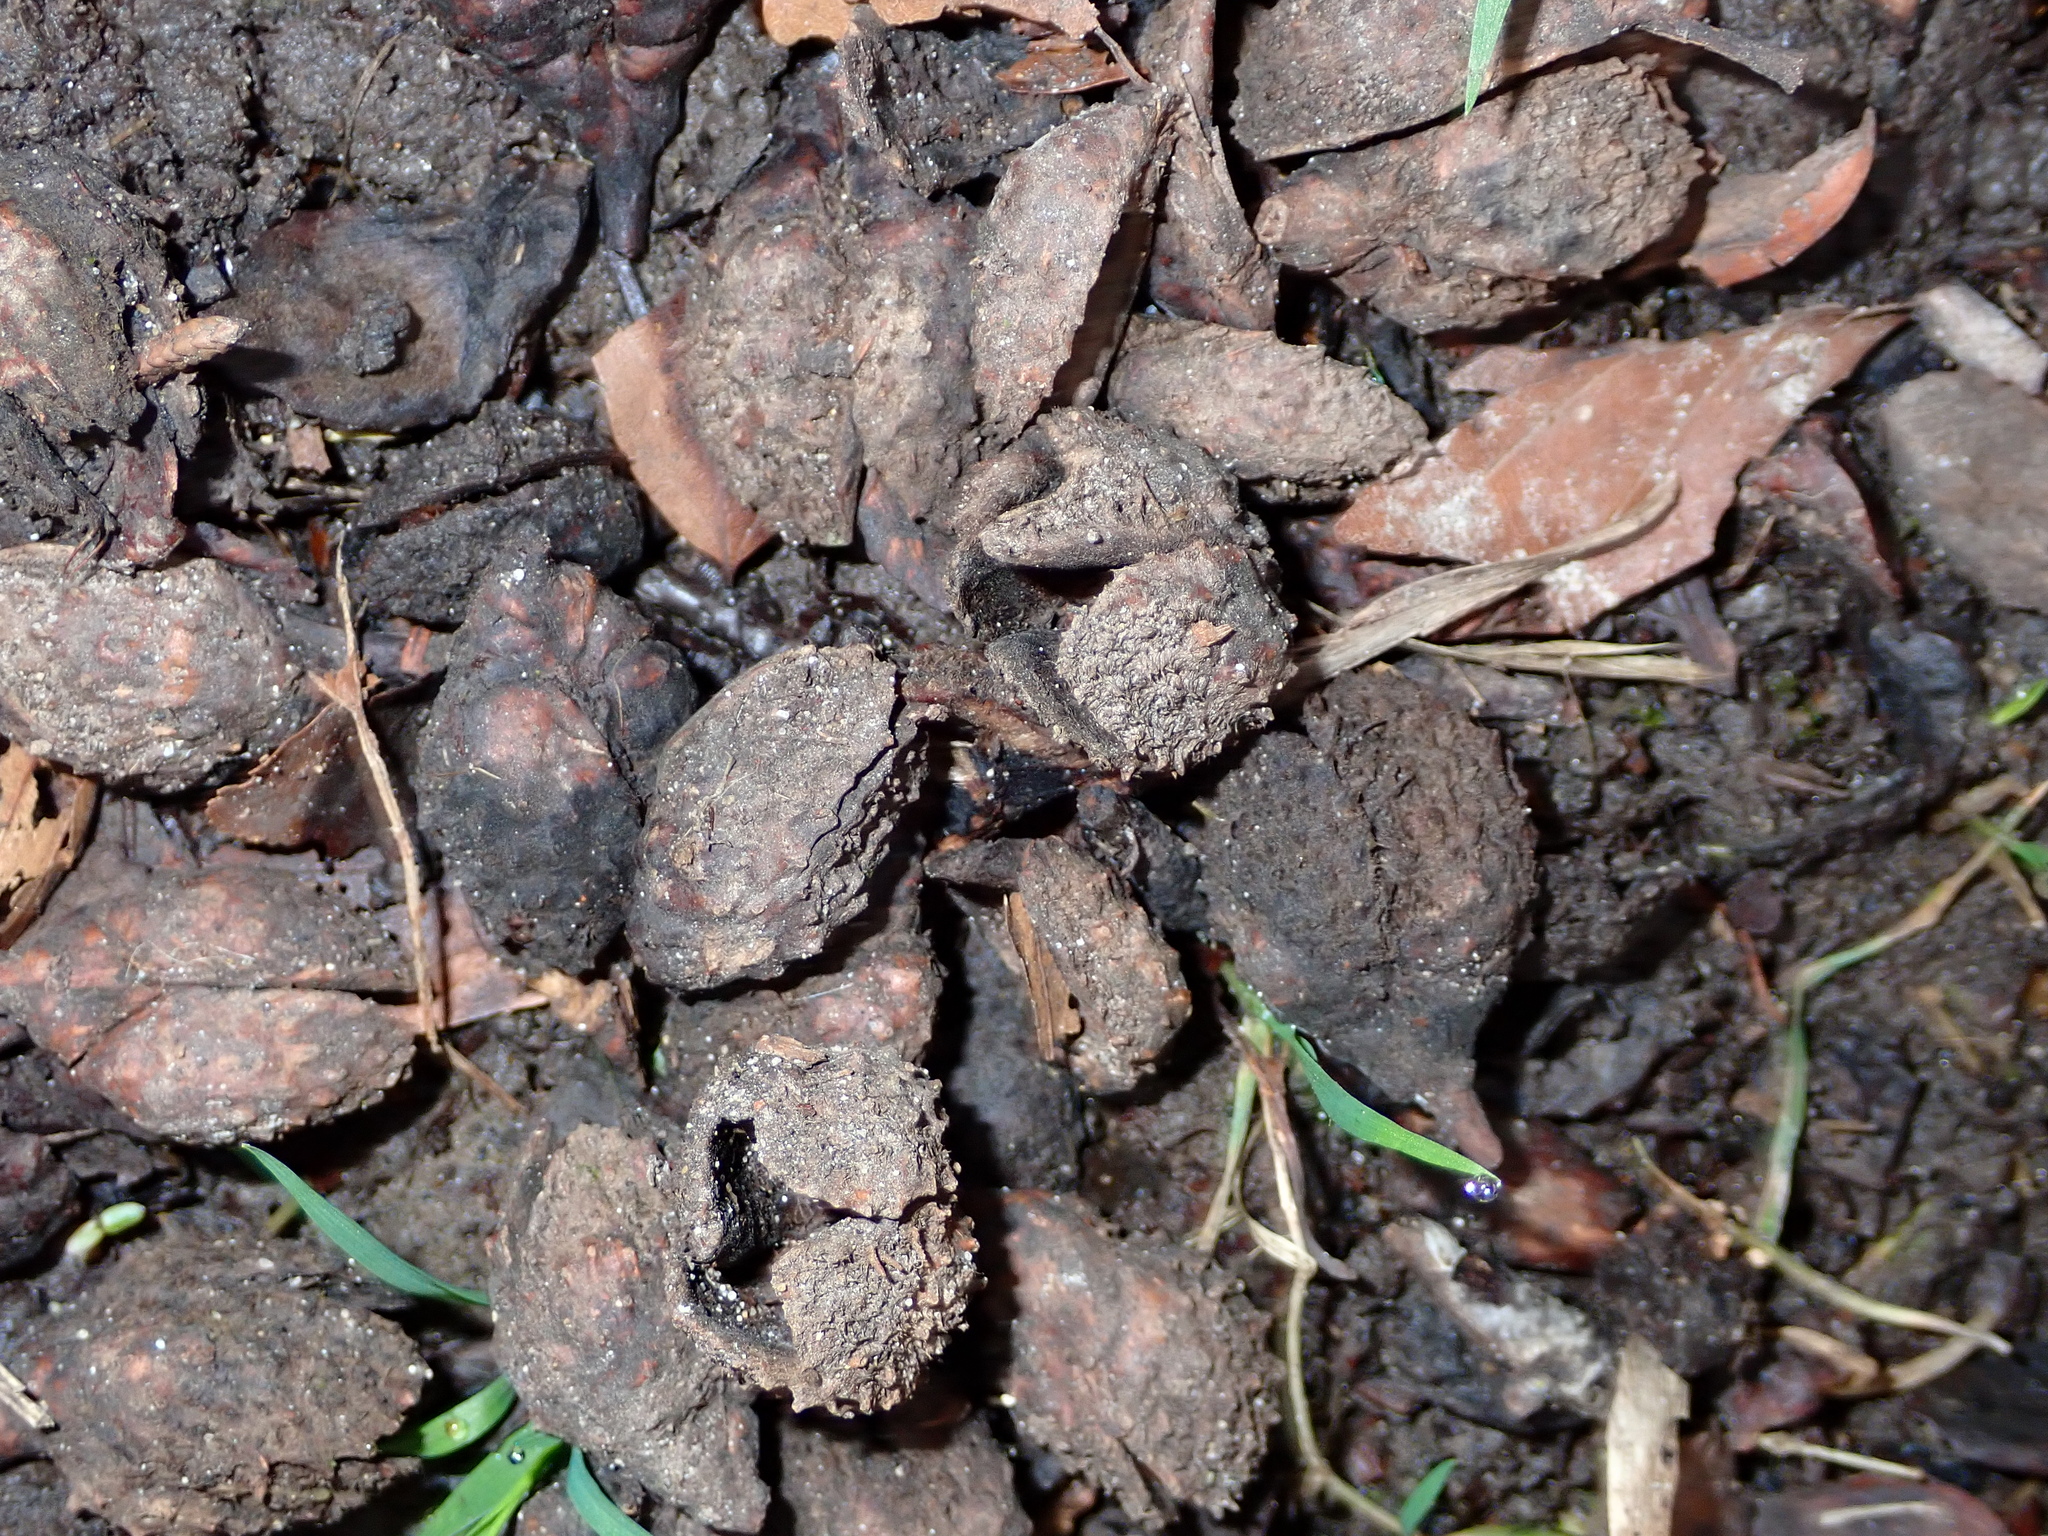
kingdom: Plantae
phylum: Tracheophyta
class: Magnoliopsida
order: Fagales
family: Fagaceae
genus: Fagus
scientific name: Fagus sylvatica
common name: Beech
